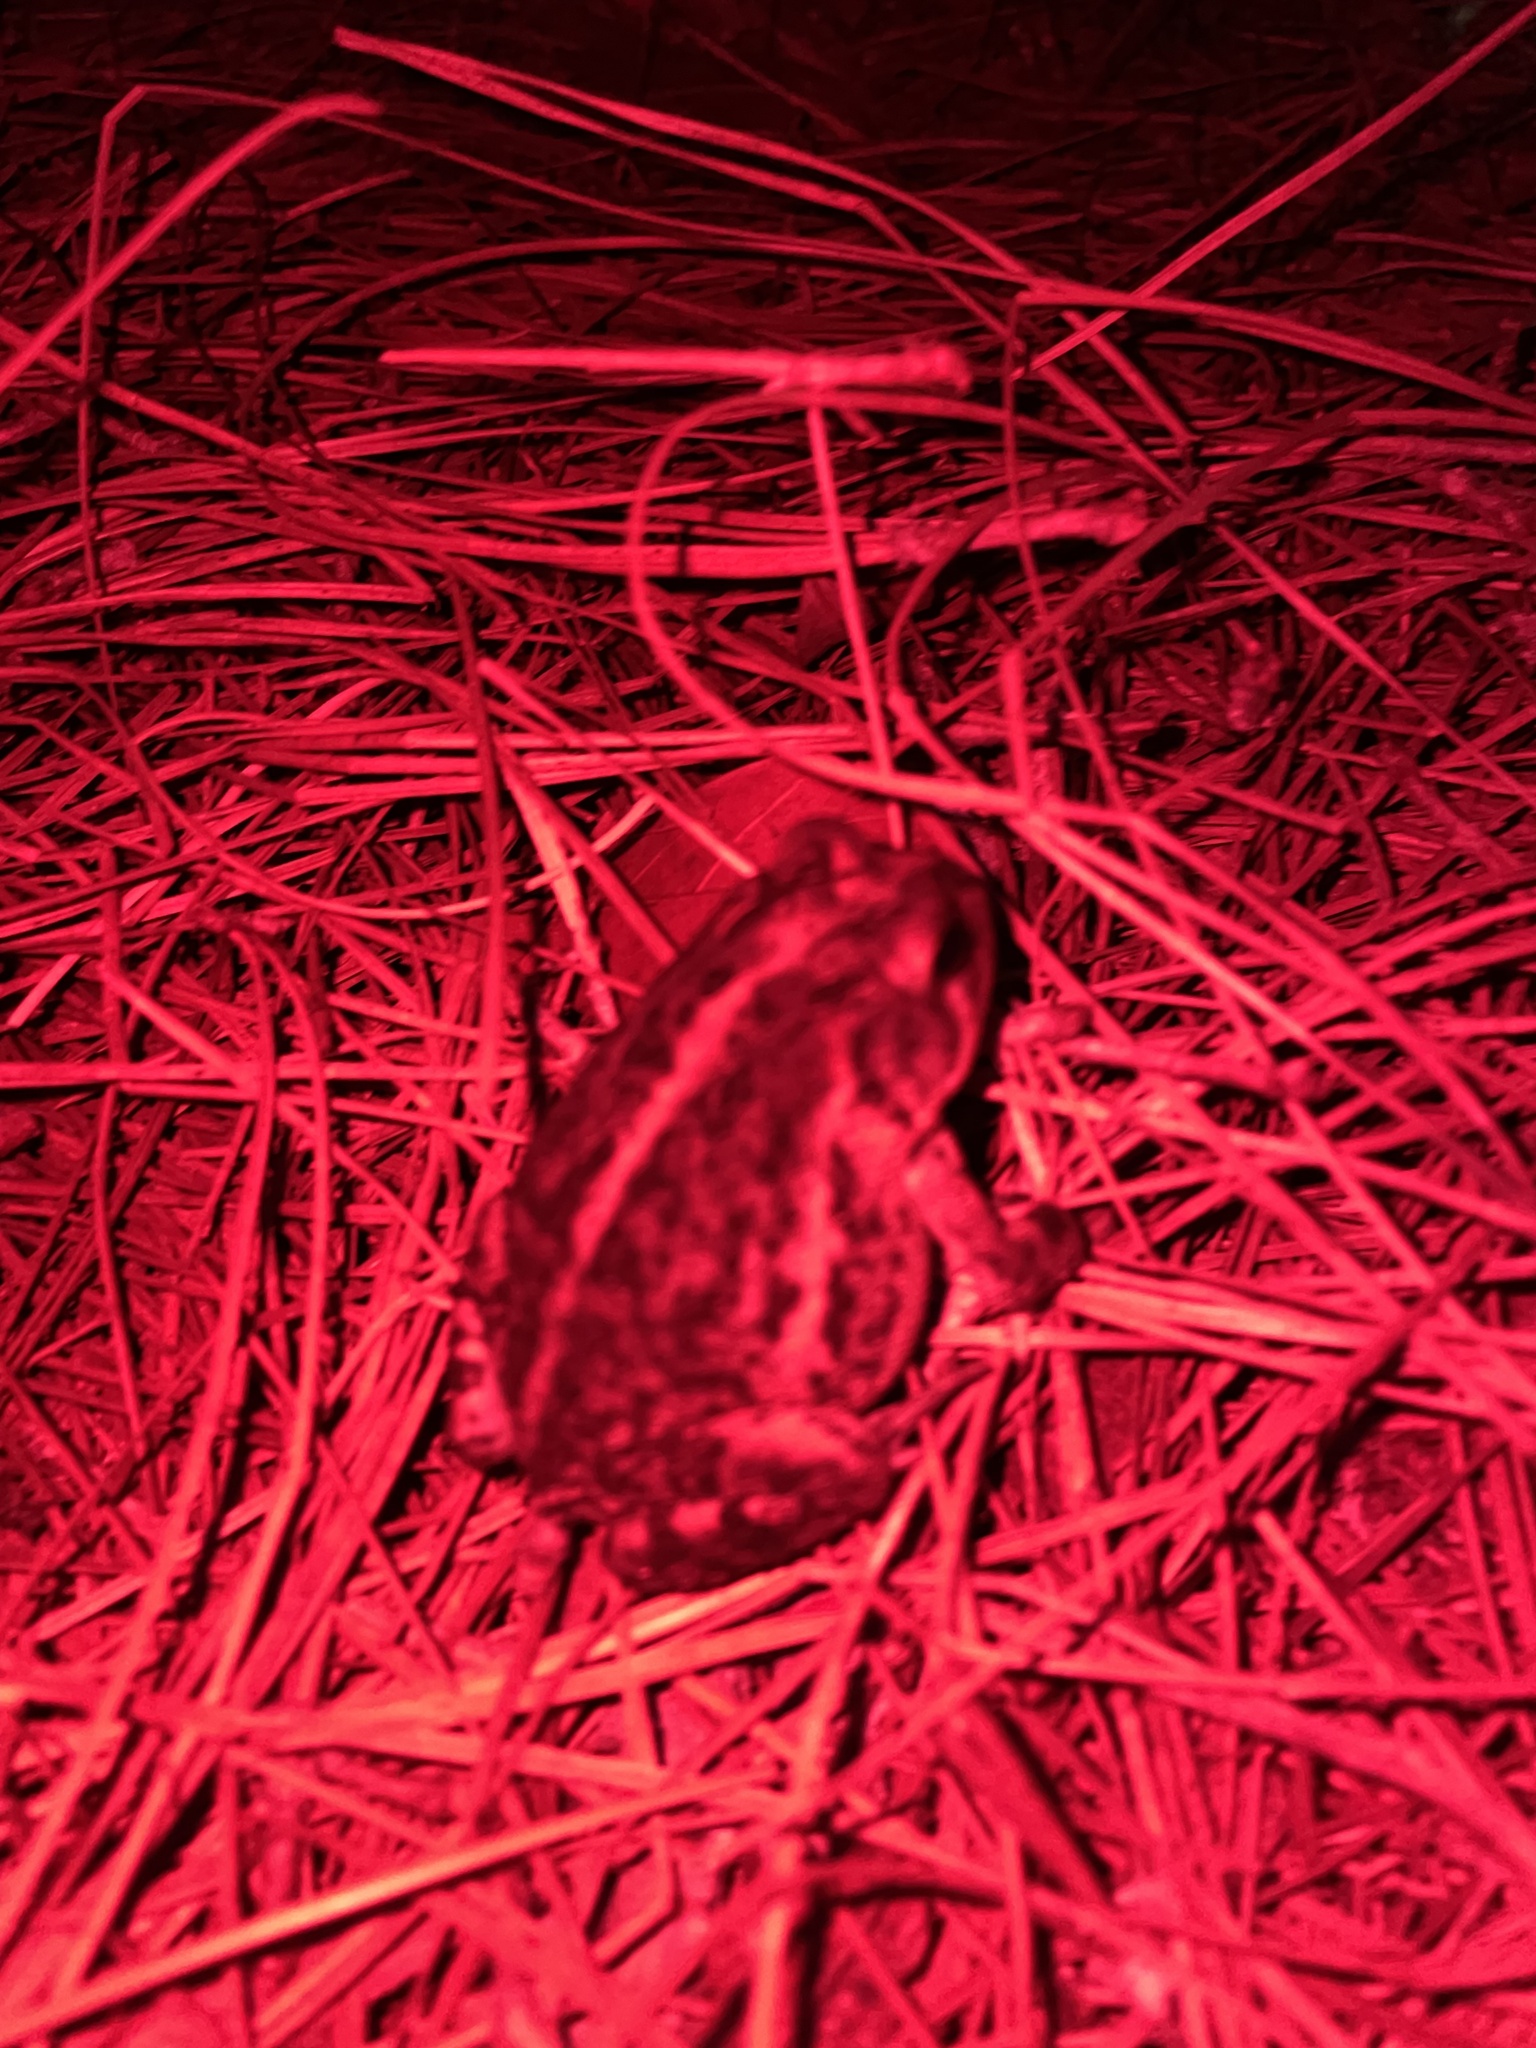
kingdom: Animalia
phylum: Chordata
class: Amphibia
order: Anura
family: Bufonidae
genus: Anaxyrus
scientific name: Anaxyrus terrestris
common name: Southern toad
